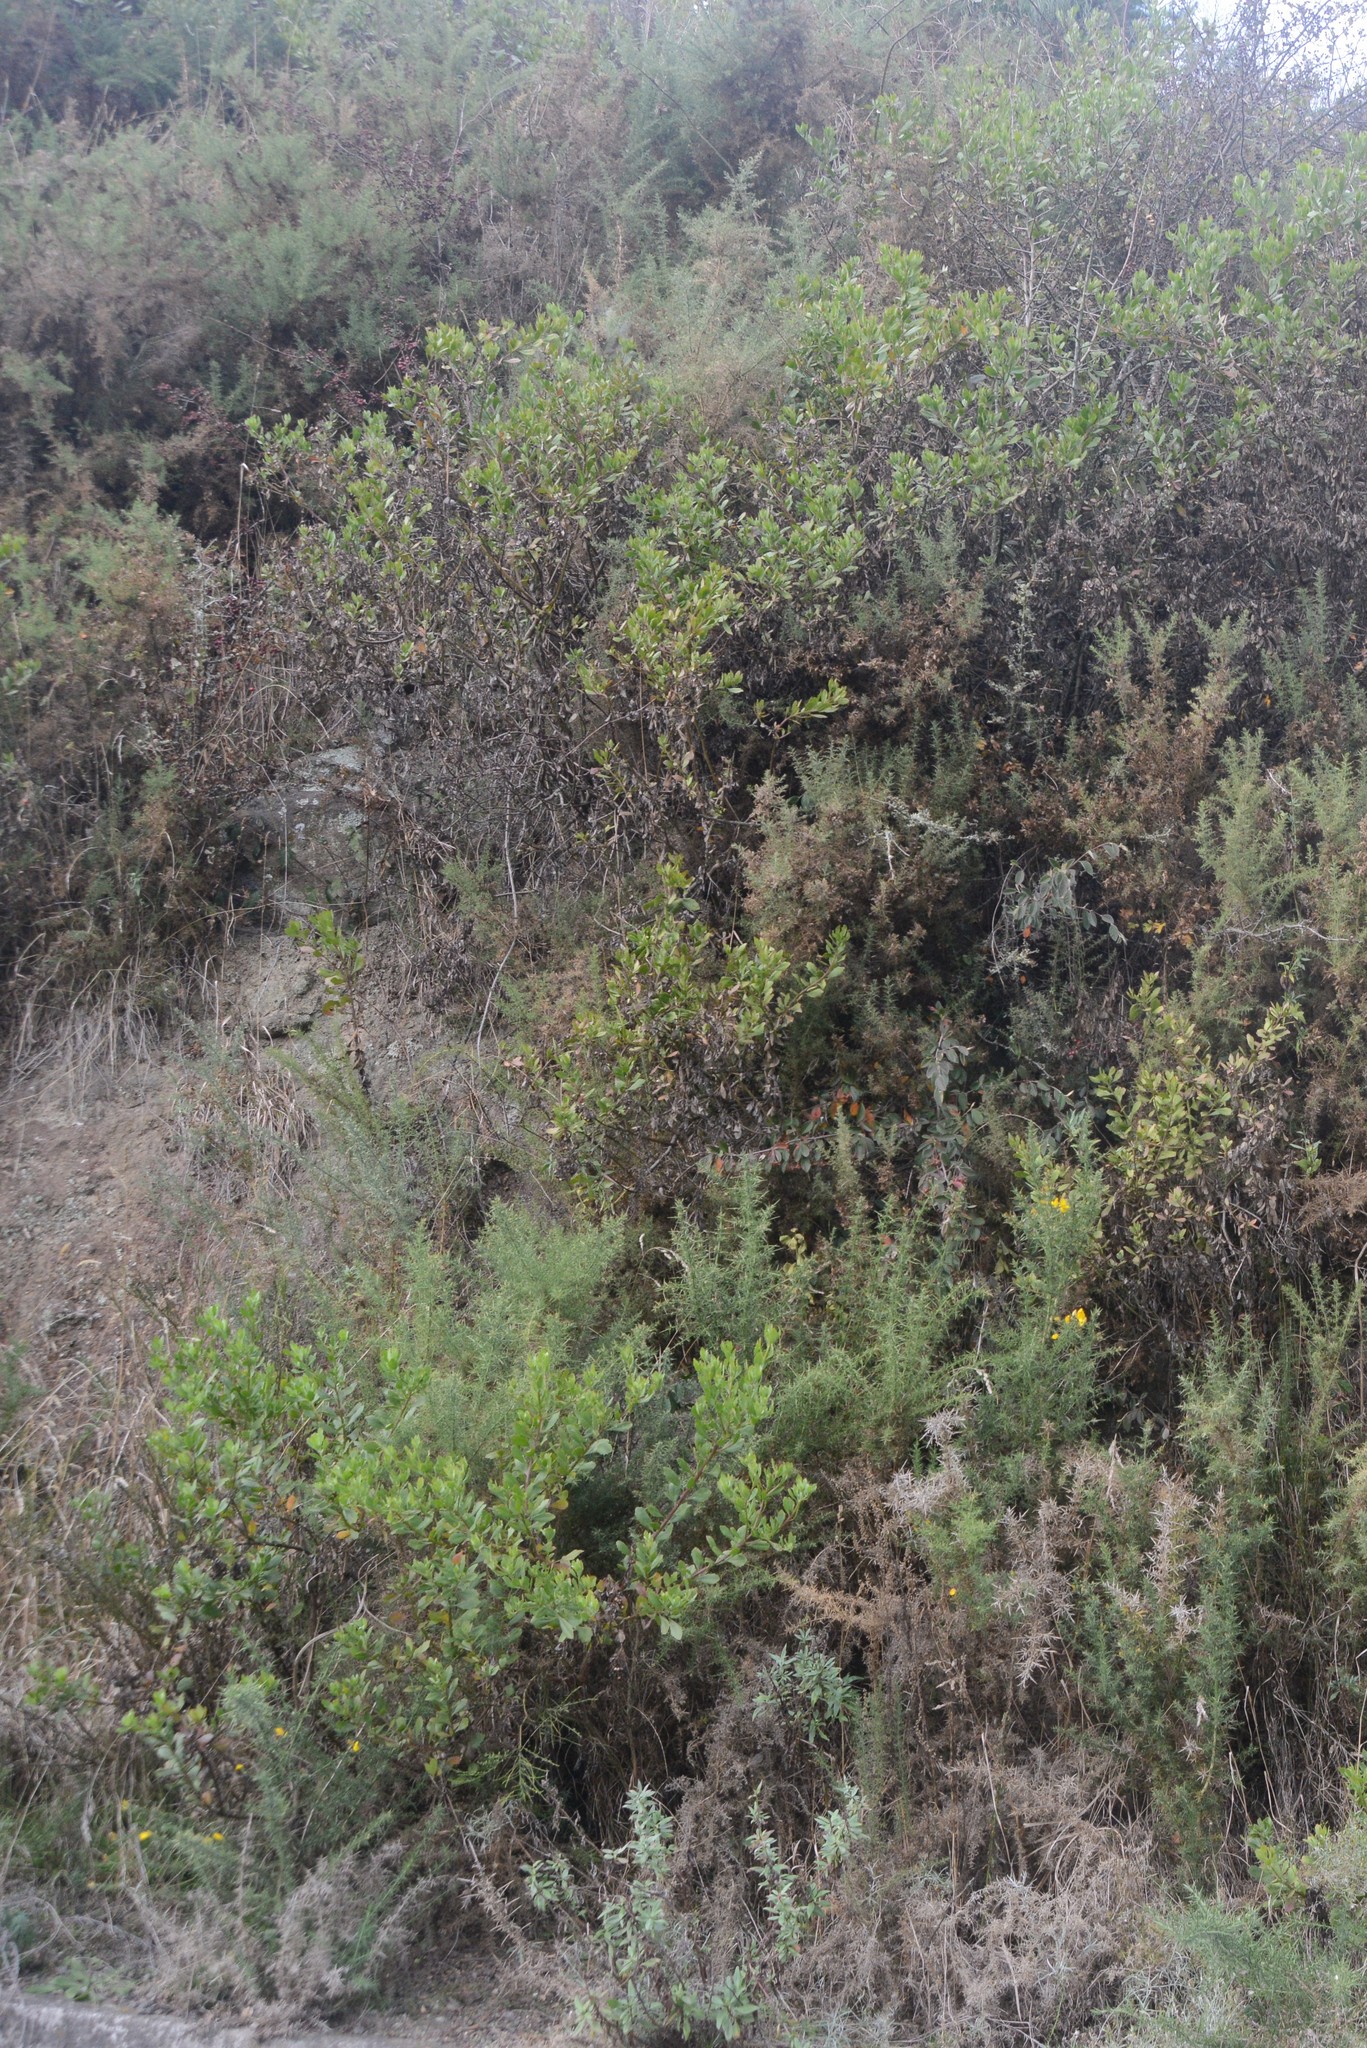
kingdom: Plantae
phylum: Tracheophyta
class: Magnoliopsida
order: Fabales
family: Fabaceae
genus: Ulex
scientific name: Ulex europaeus
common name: Common gorse
